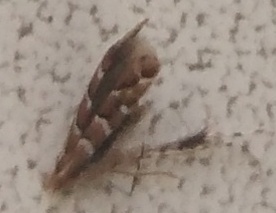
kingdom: Animalia
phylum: Arthropoda
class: Insecta
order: Lepidoptera
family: Gracillariidae
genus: Cameraria
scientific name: Cameraria ohridella
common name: Horse-chestnut leaf-miner
